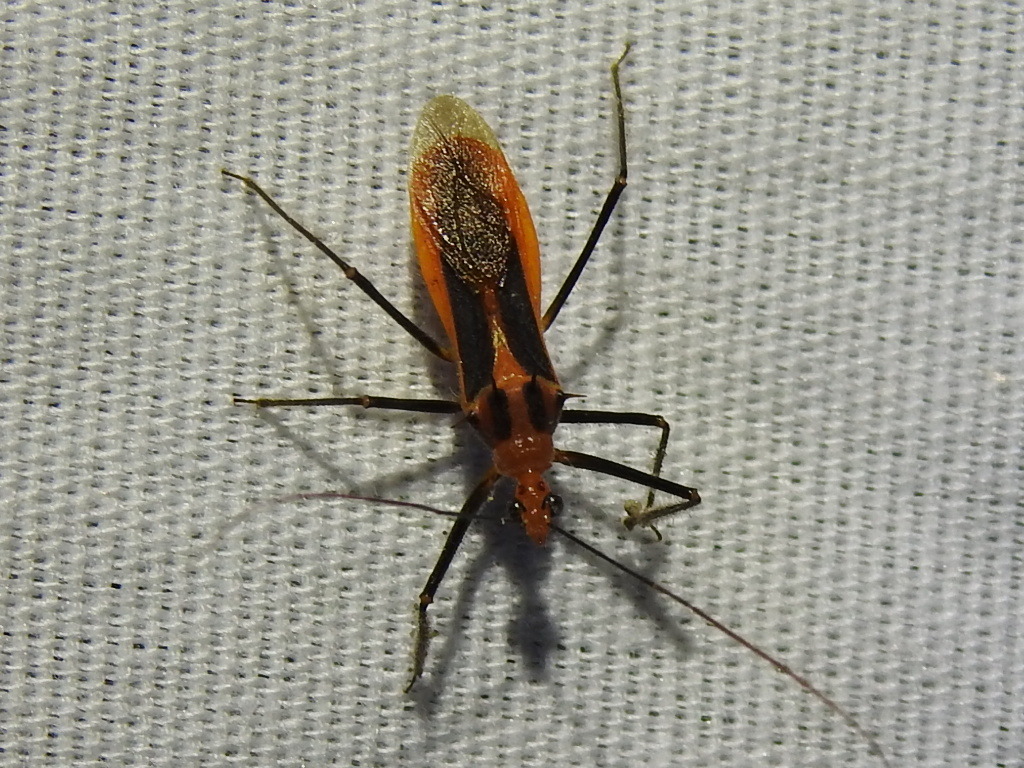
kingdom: Animalia
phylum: Arthropoda
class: Insecta
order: Hemiptera
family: Reduviidae
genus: Repipta
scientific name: Repipta taurus
